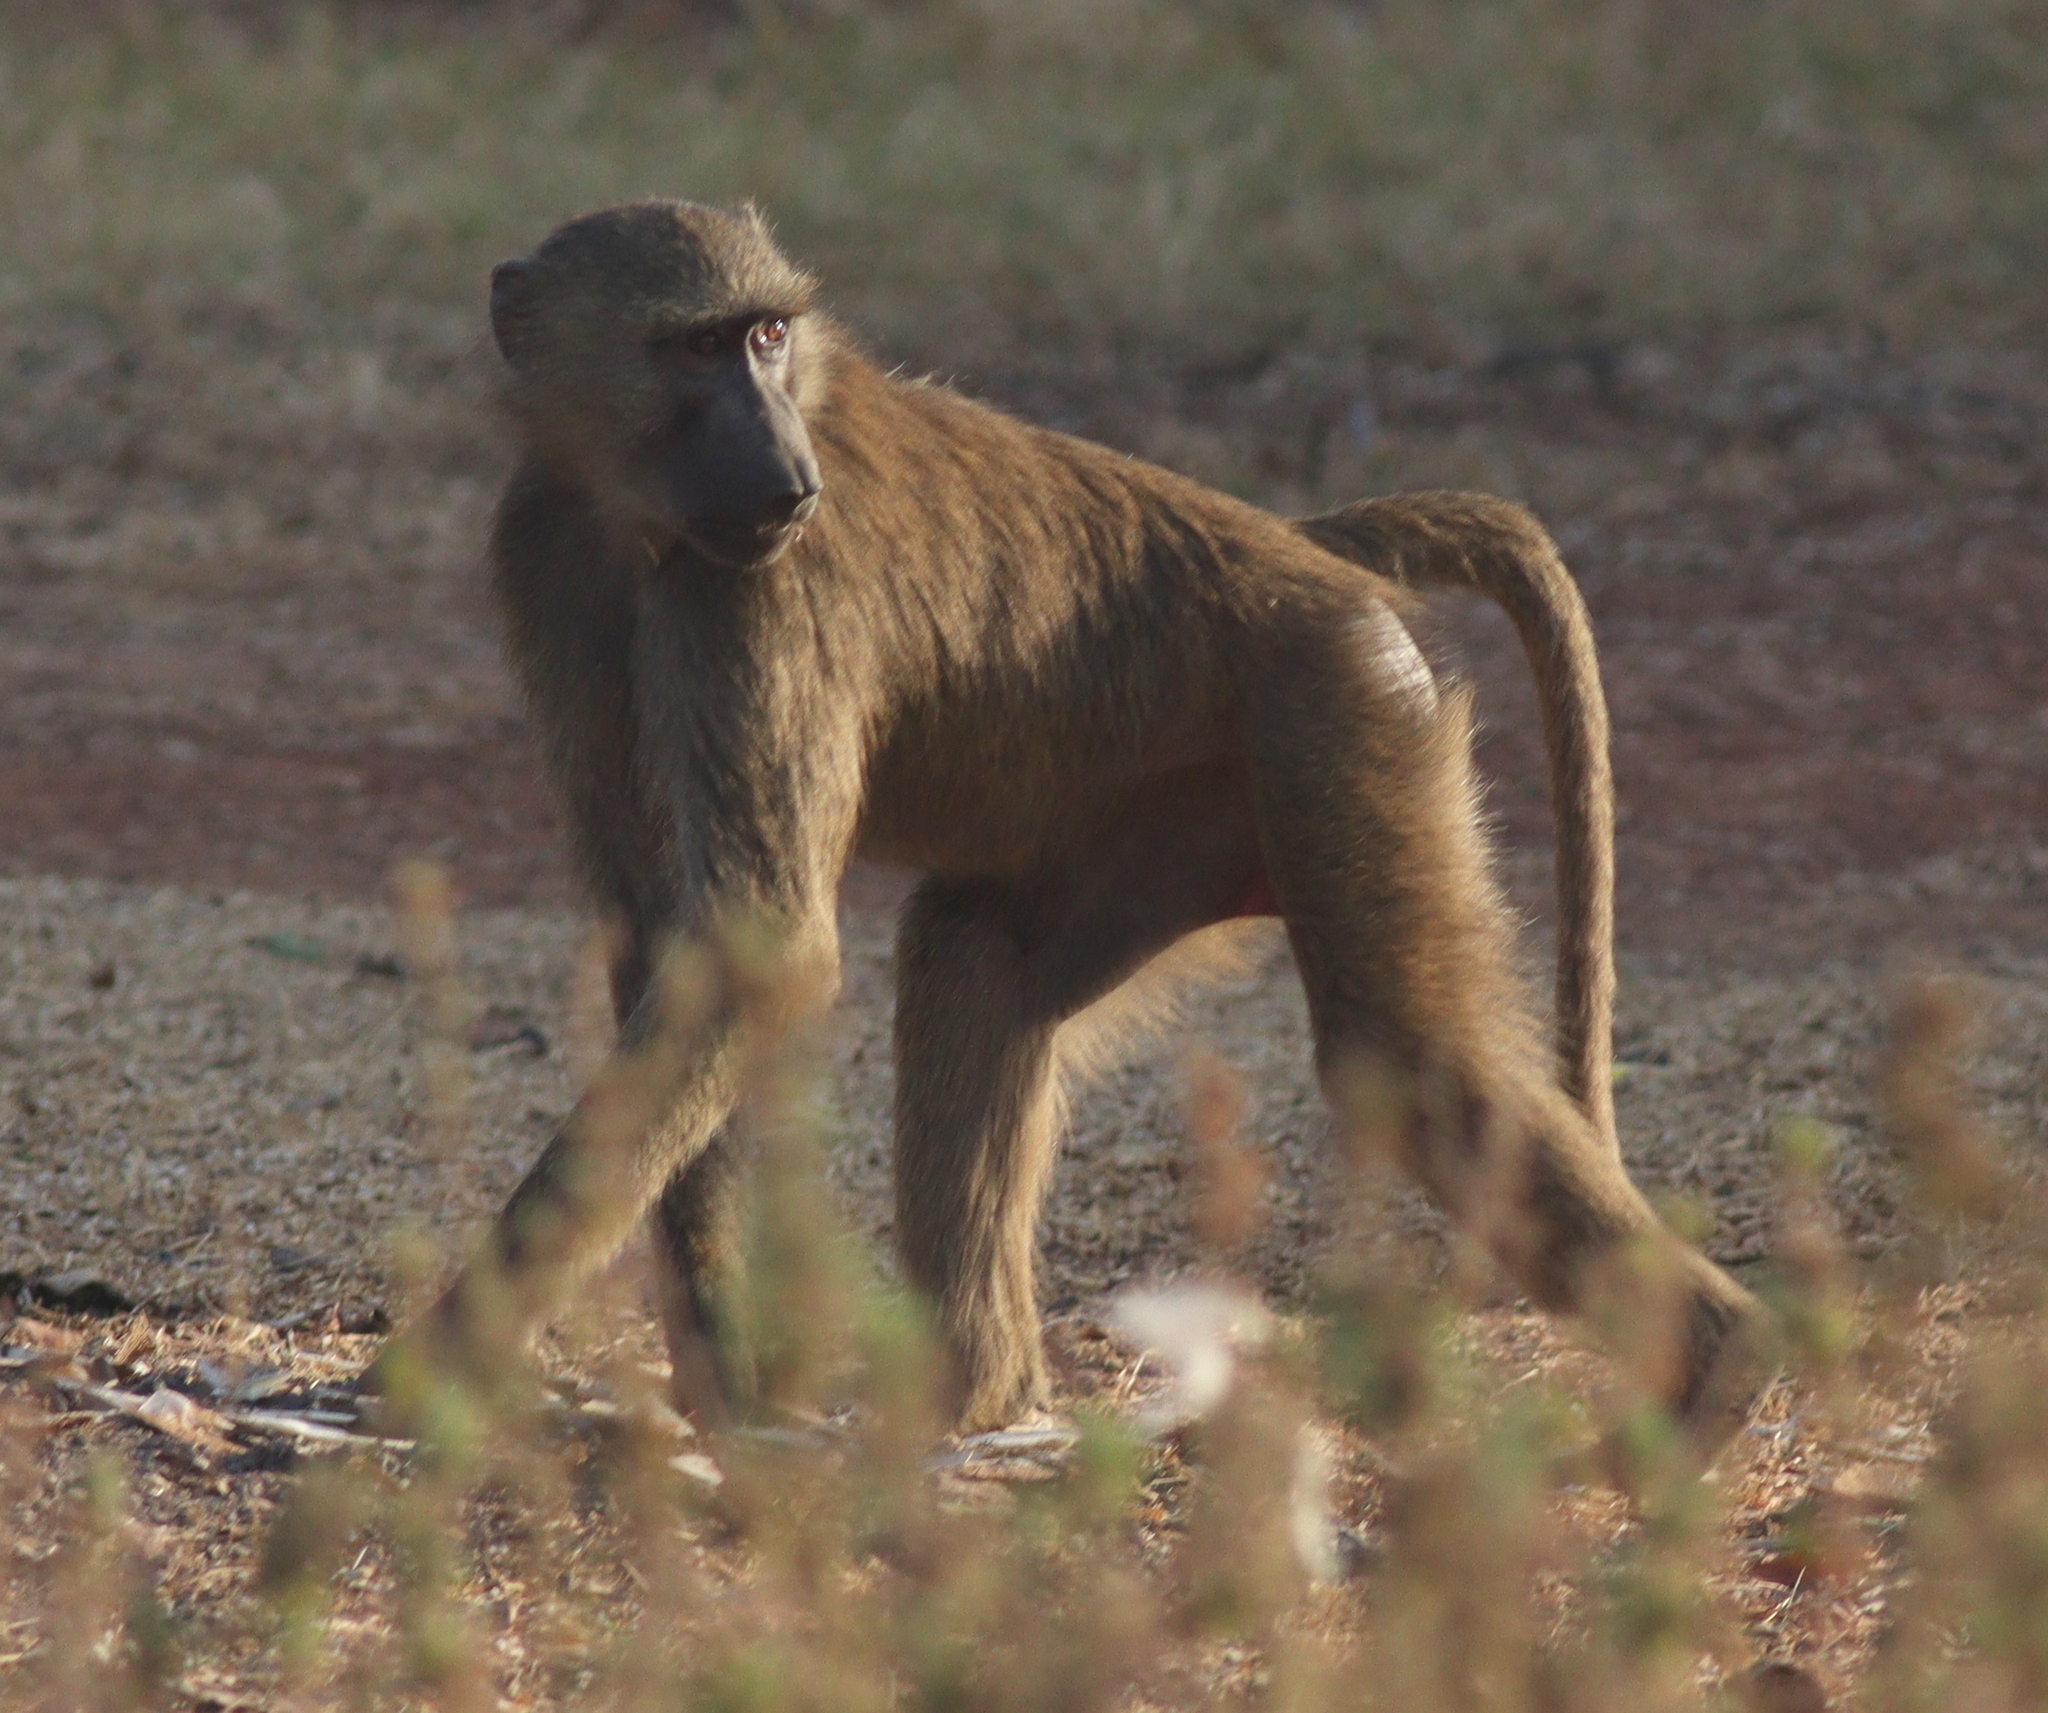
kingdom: Animalia
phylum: Chordata
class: Mammalia
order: Primates
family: Cercopithecidae
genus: Papio
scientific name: Papio anubis
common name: Olive baboon
